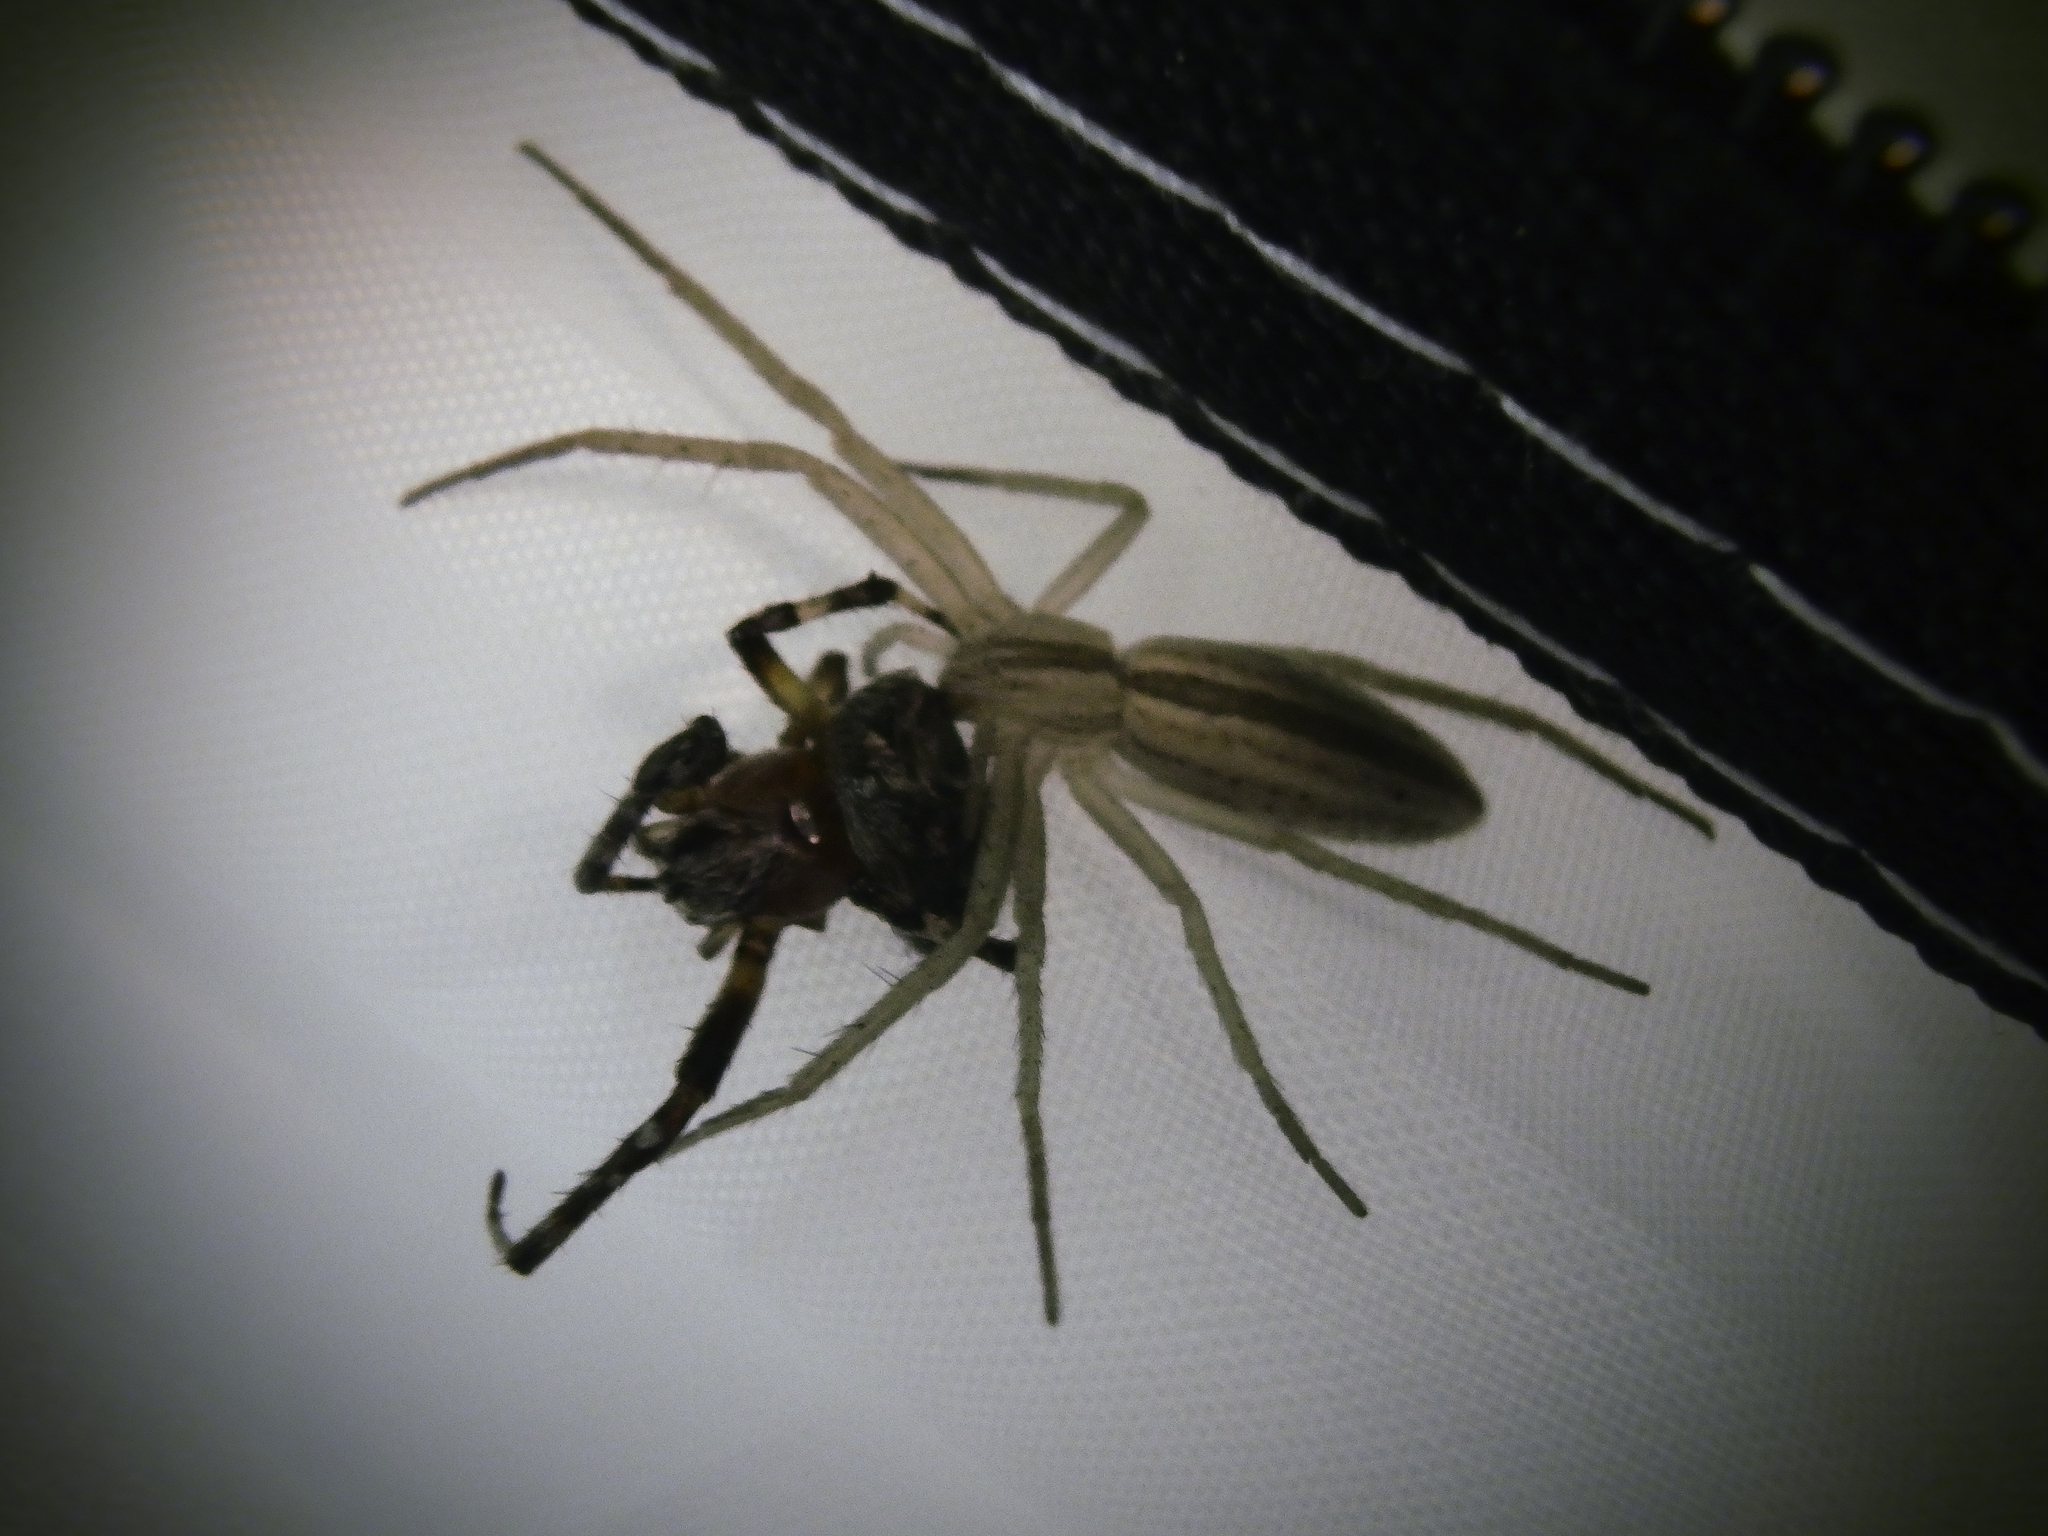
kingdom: Animalia
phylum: Arthropoda
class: Arachnida
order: Araneae
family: Araneidae
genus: Larinioides
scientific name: Larinioides patagiatus
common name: Ornamental orbweaver
